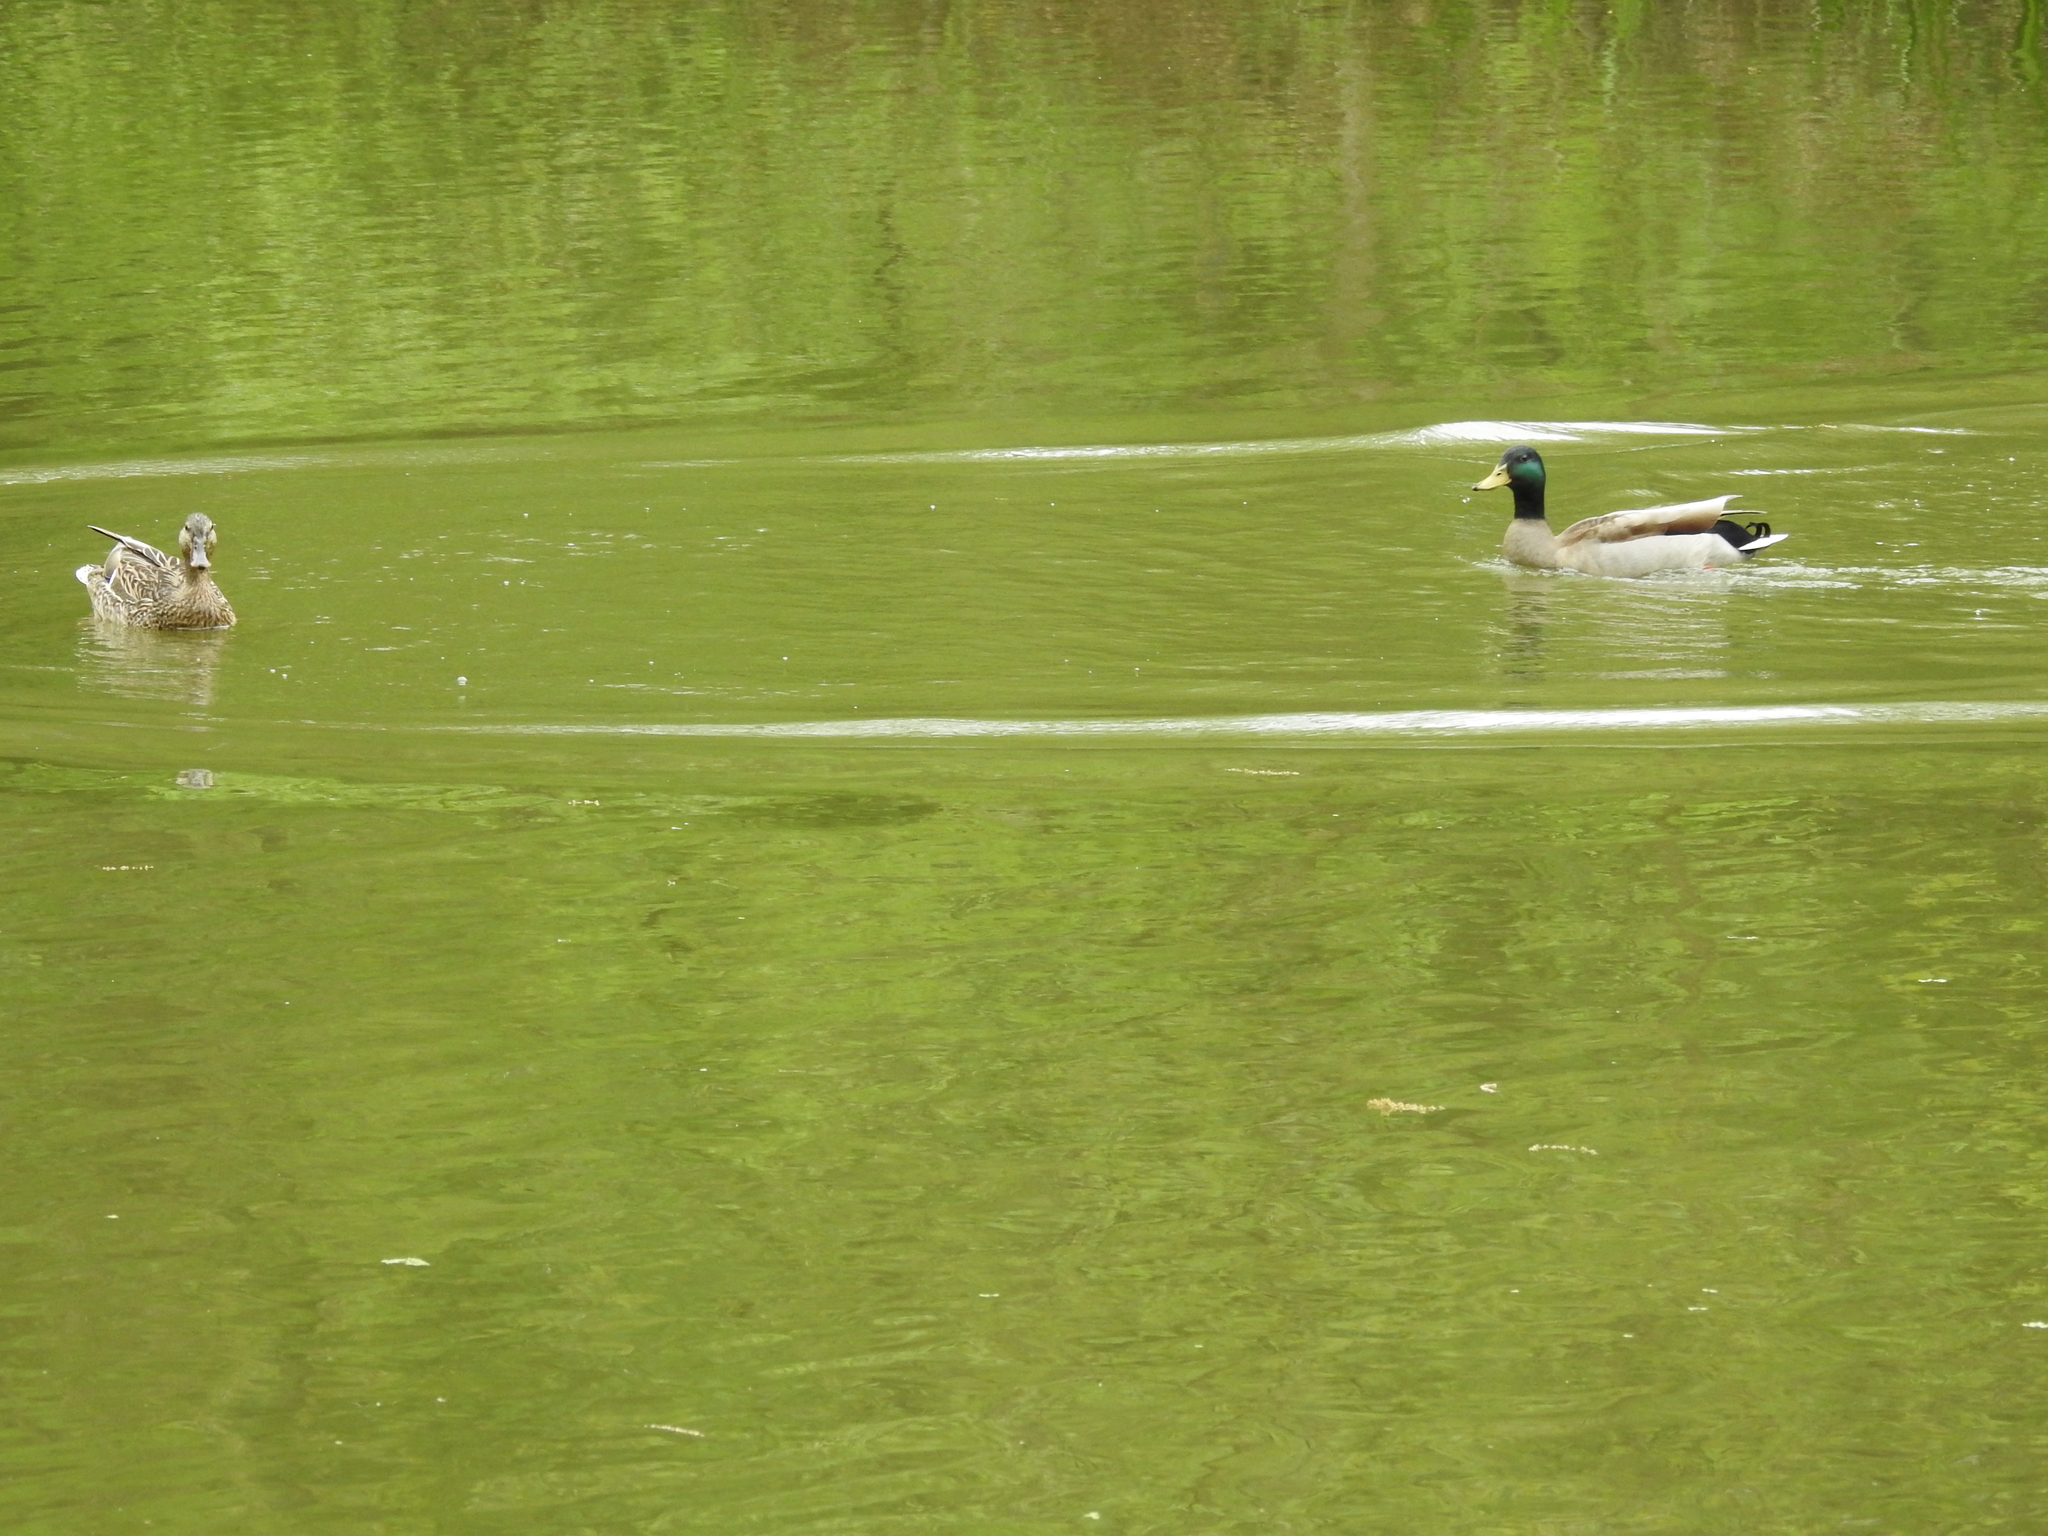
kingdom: Animalia
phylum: Chordata
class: Aves
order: Anseriformes
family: Anatidae
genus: Anas
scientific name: Anas platyrhynchos
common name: Mallard
